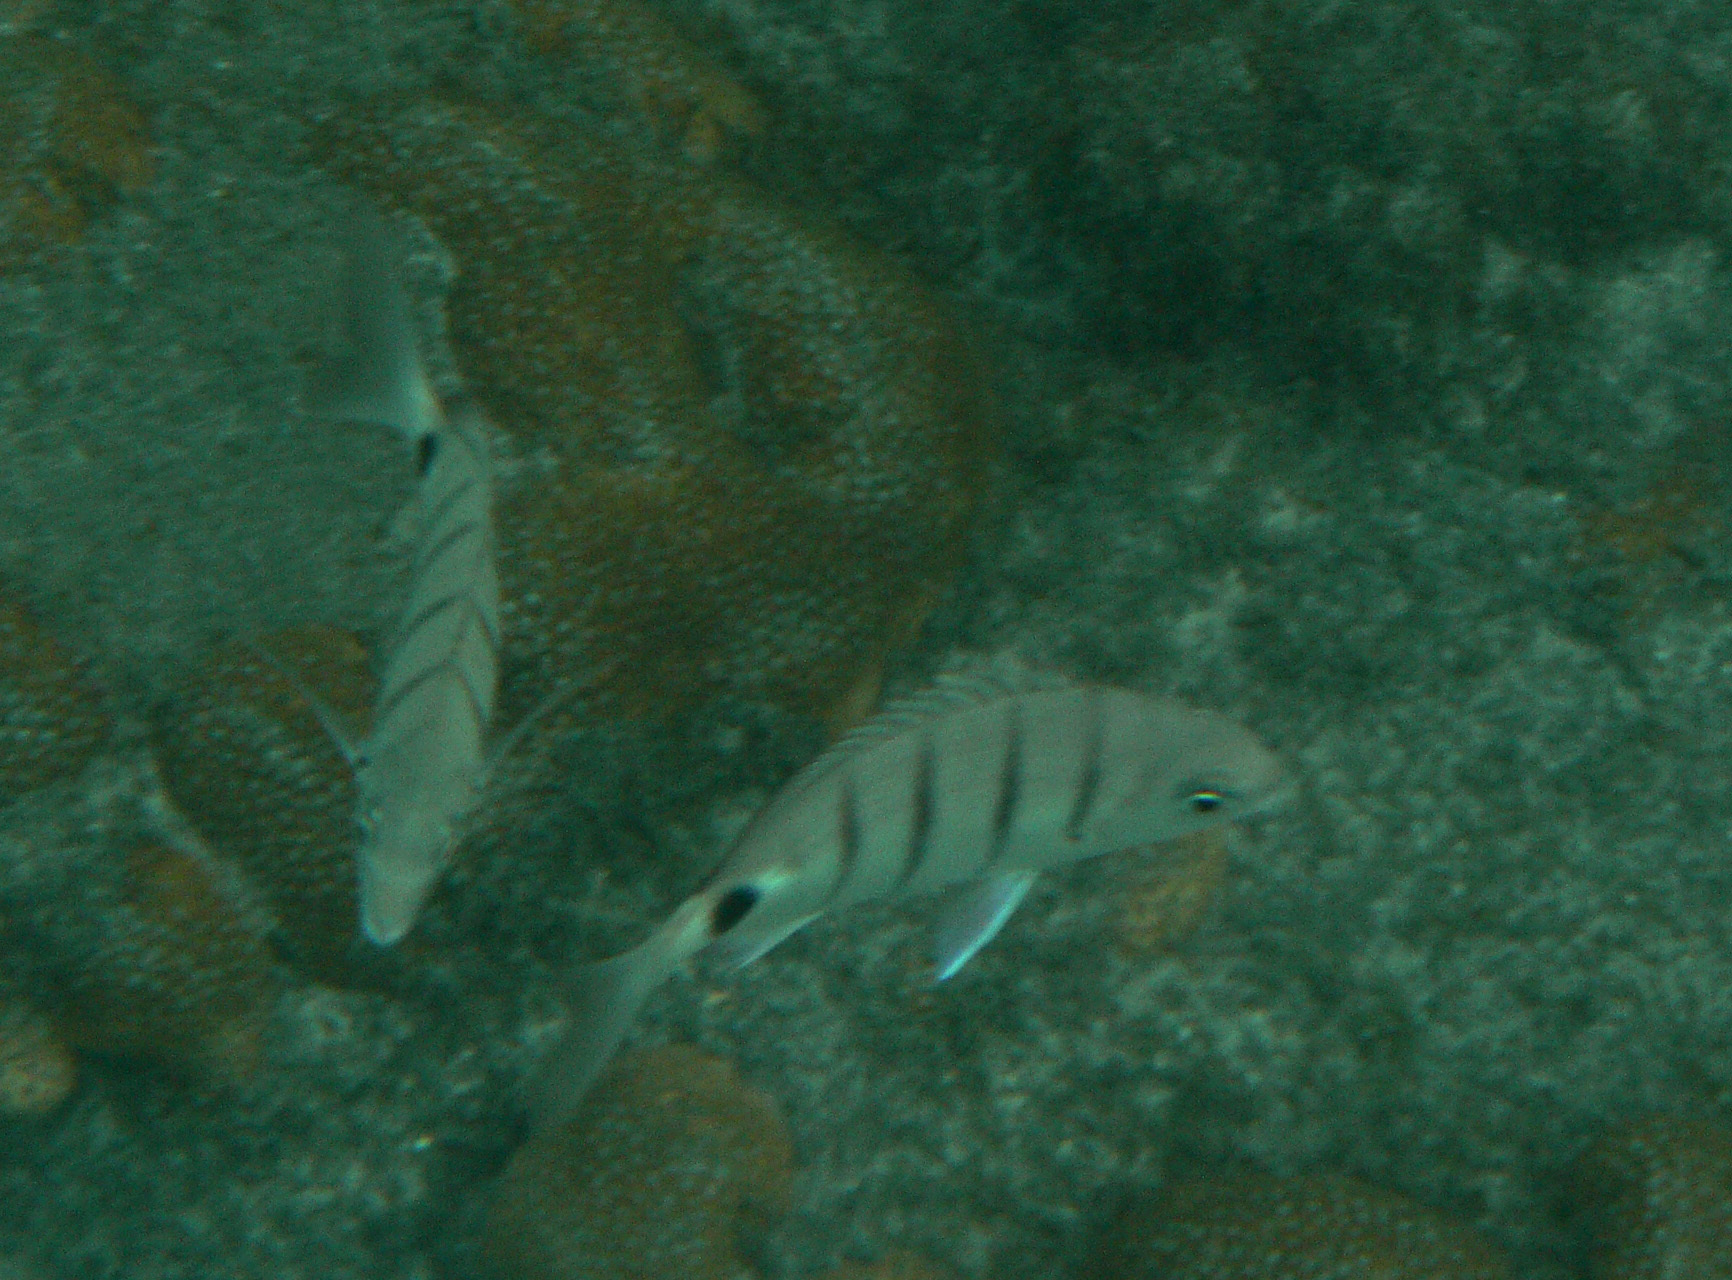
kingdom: Animalia
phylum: Chordata
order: Perciformes
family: Sparidae
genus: Diplodus
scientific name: Diplodus lineatus
